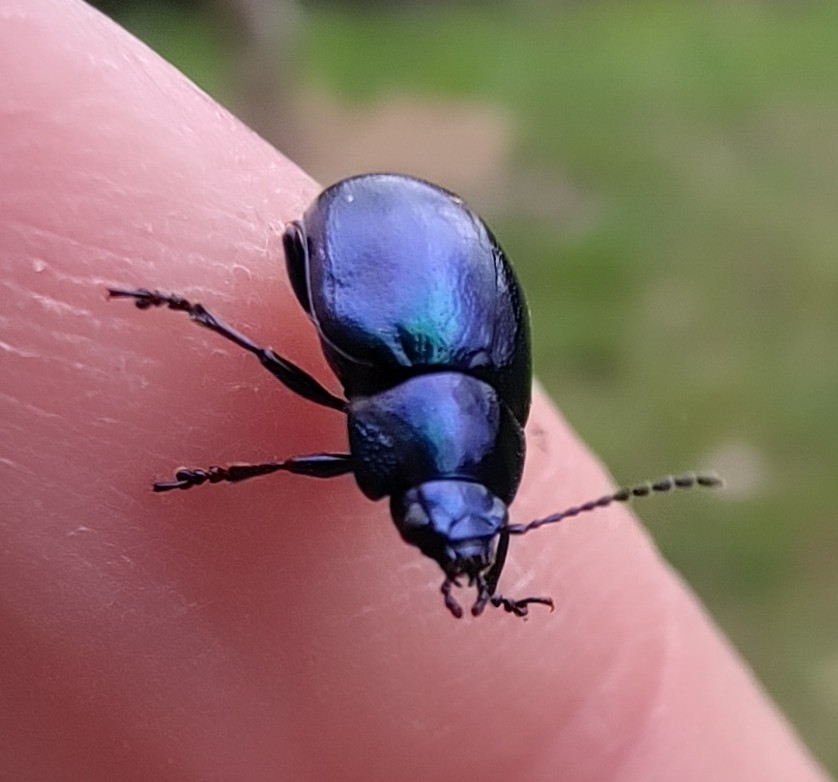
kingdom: Animalia
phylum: Arthropoda
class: Insecta
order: Coleoptera
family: Chrysomelidae
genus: Chrysolina
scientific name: Chrysolina coerulans
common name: Blue mint beetle
